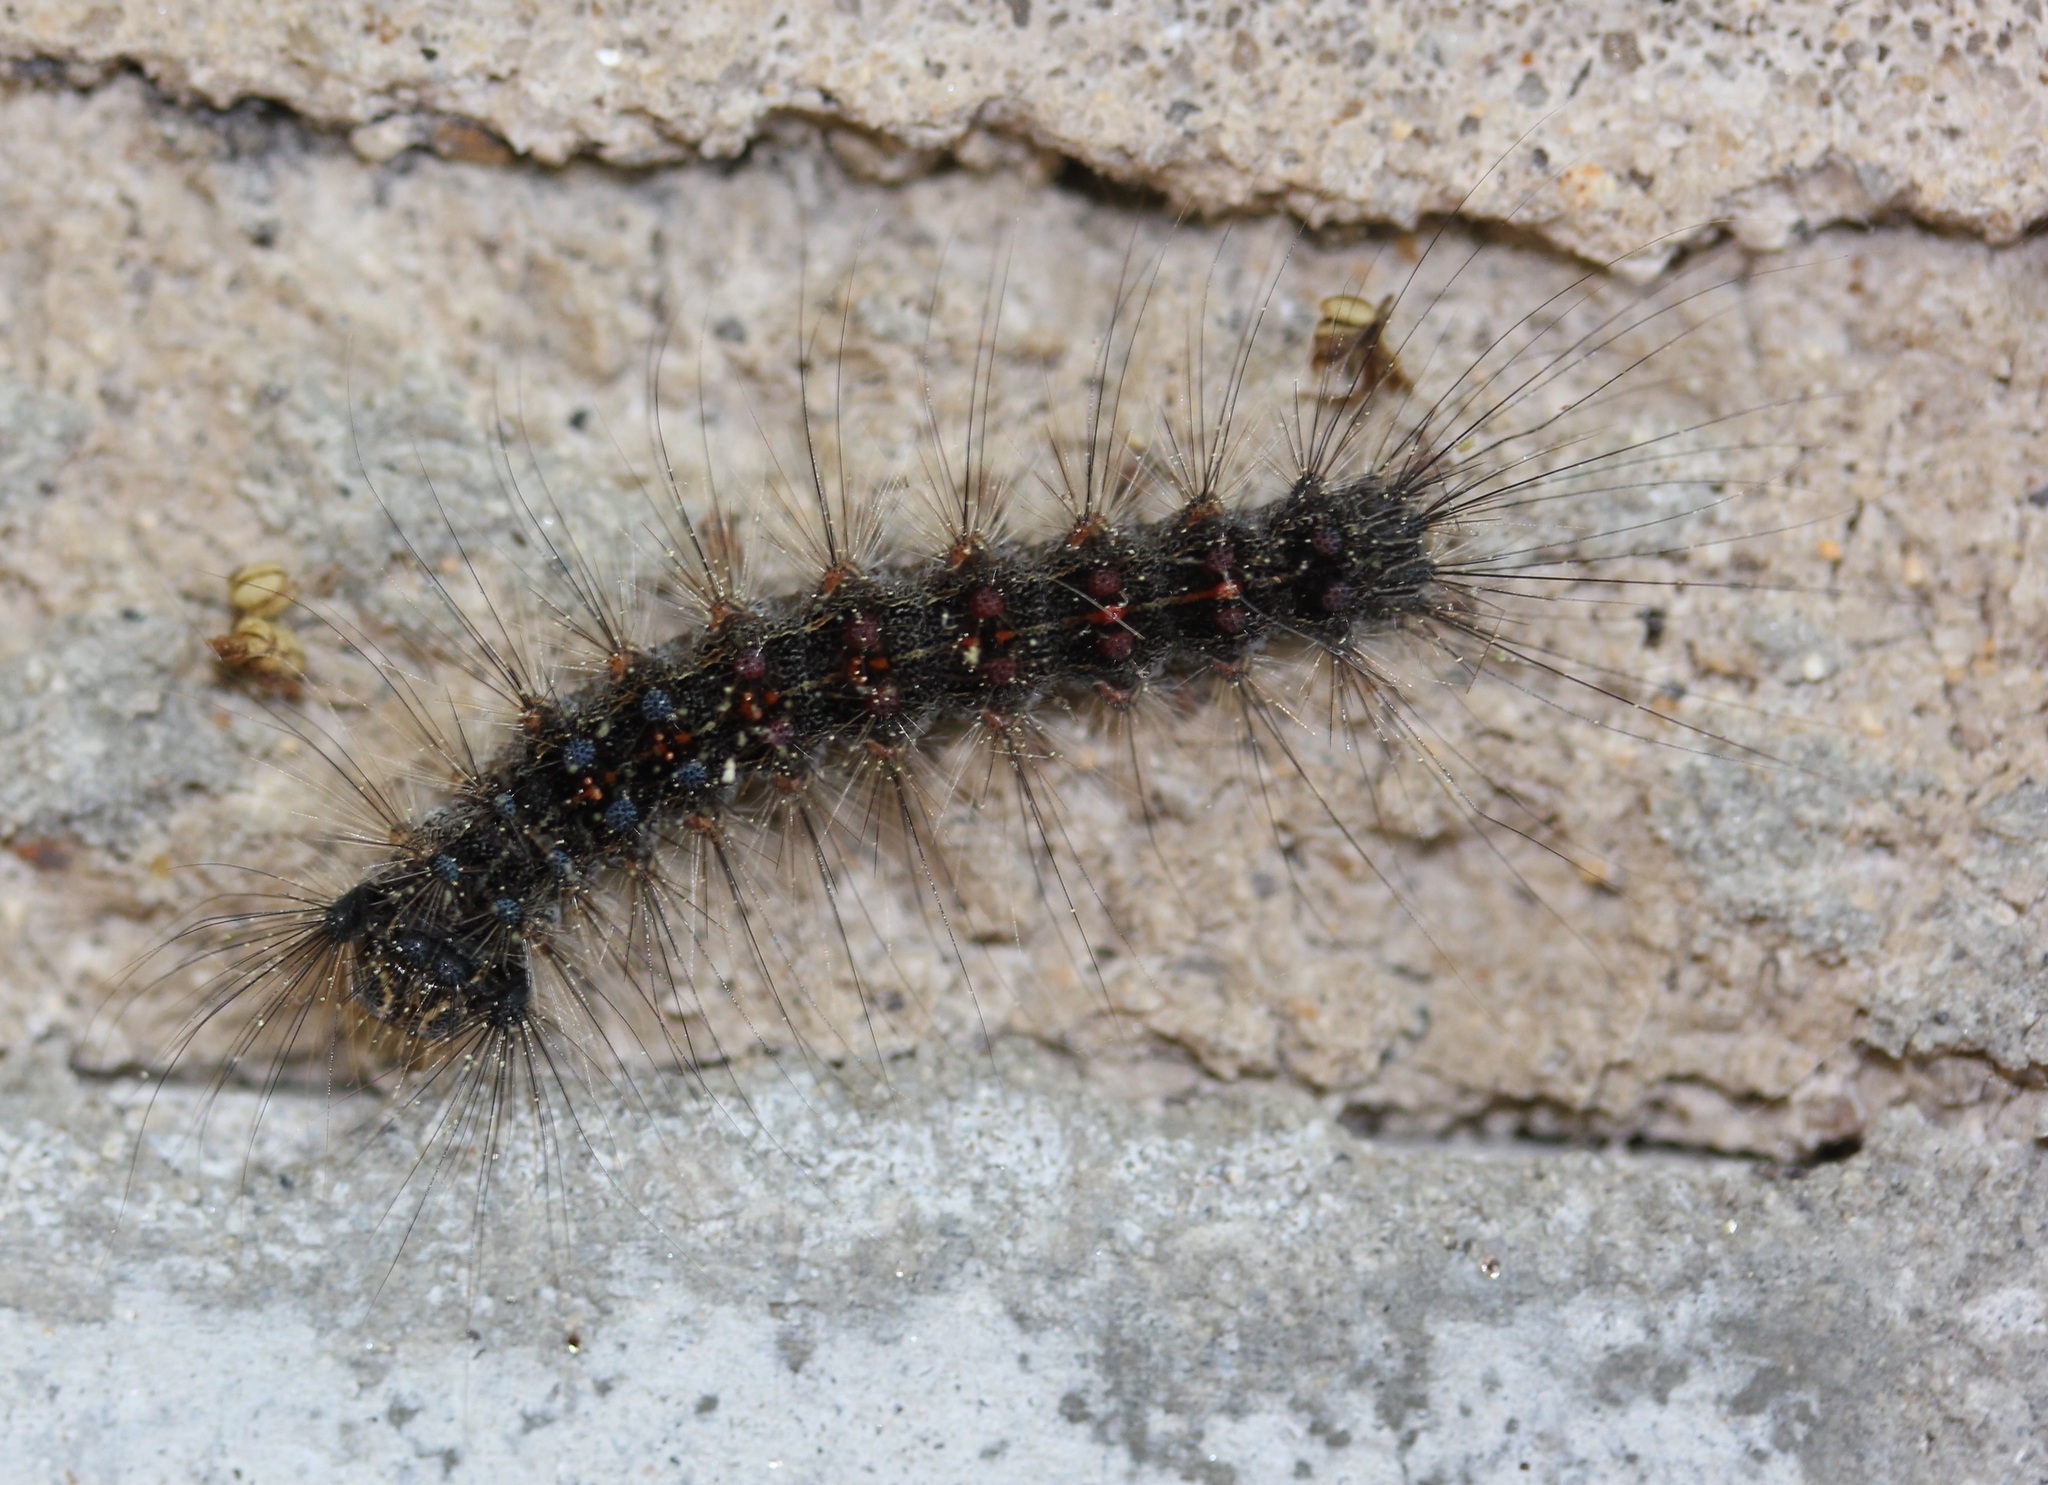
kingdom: Animalia
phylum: Arthropoda
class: Insecta
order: Lepidoptera
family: Erebidae
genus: Lymantria
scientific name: Lymantria dispar
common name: Gypsy moth
